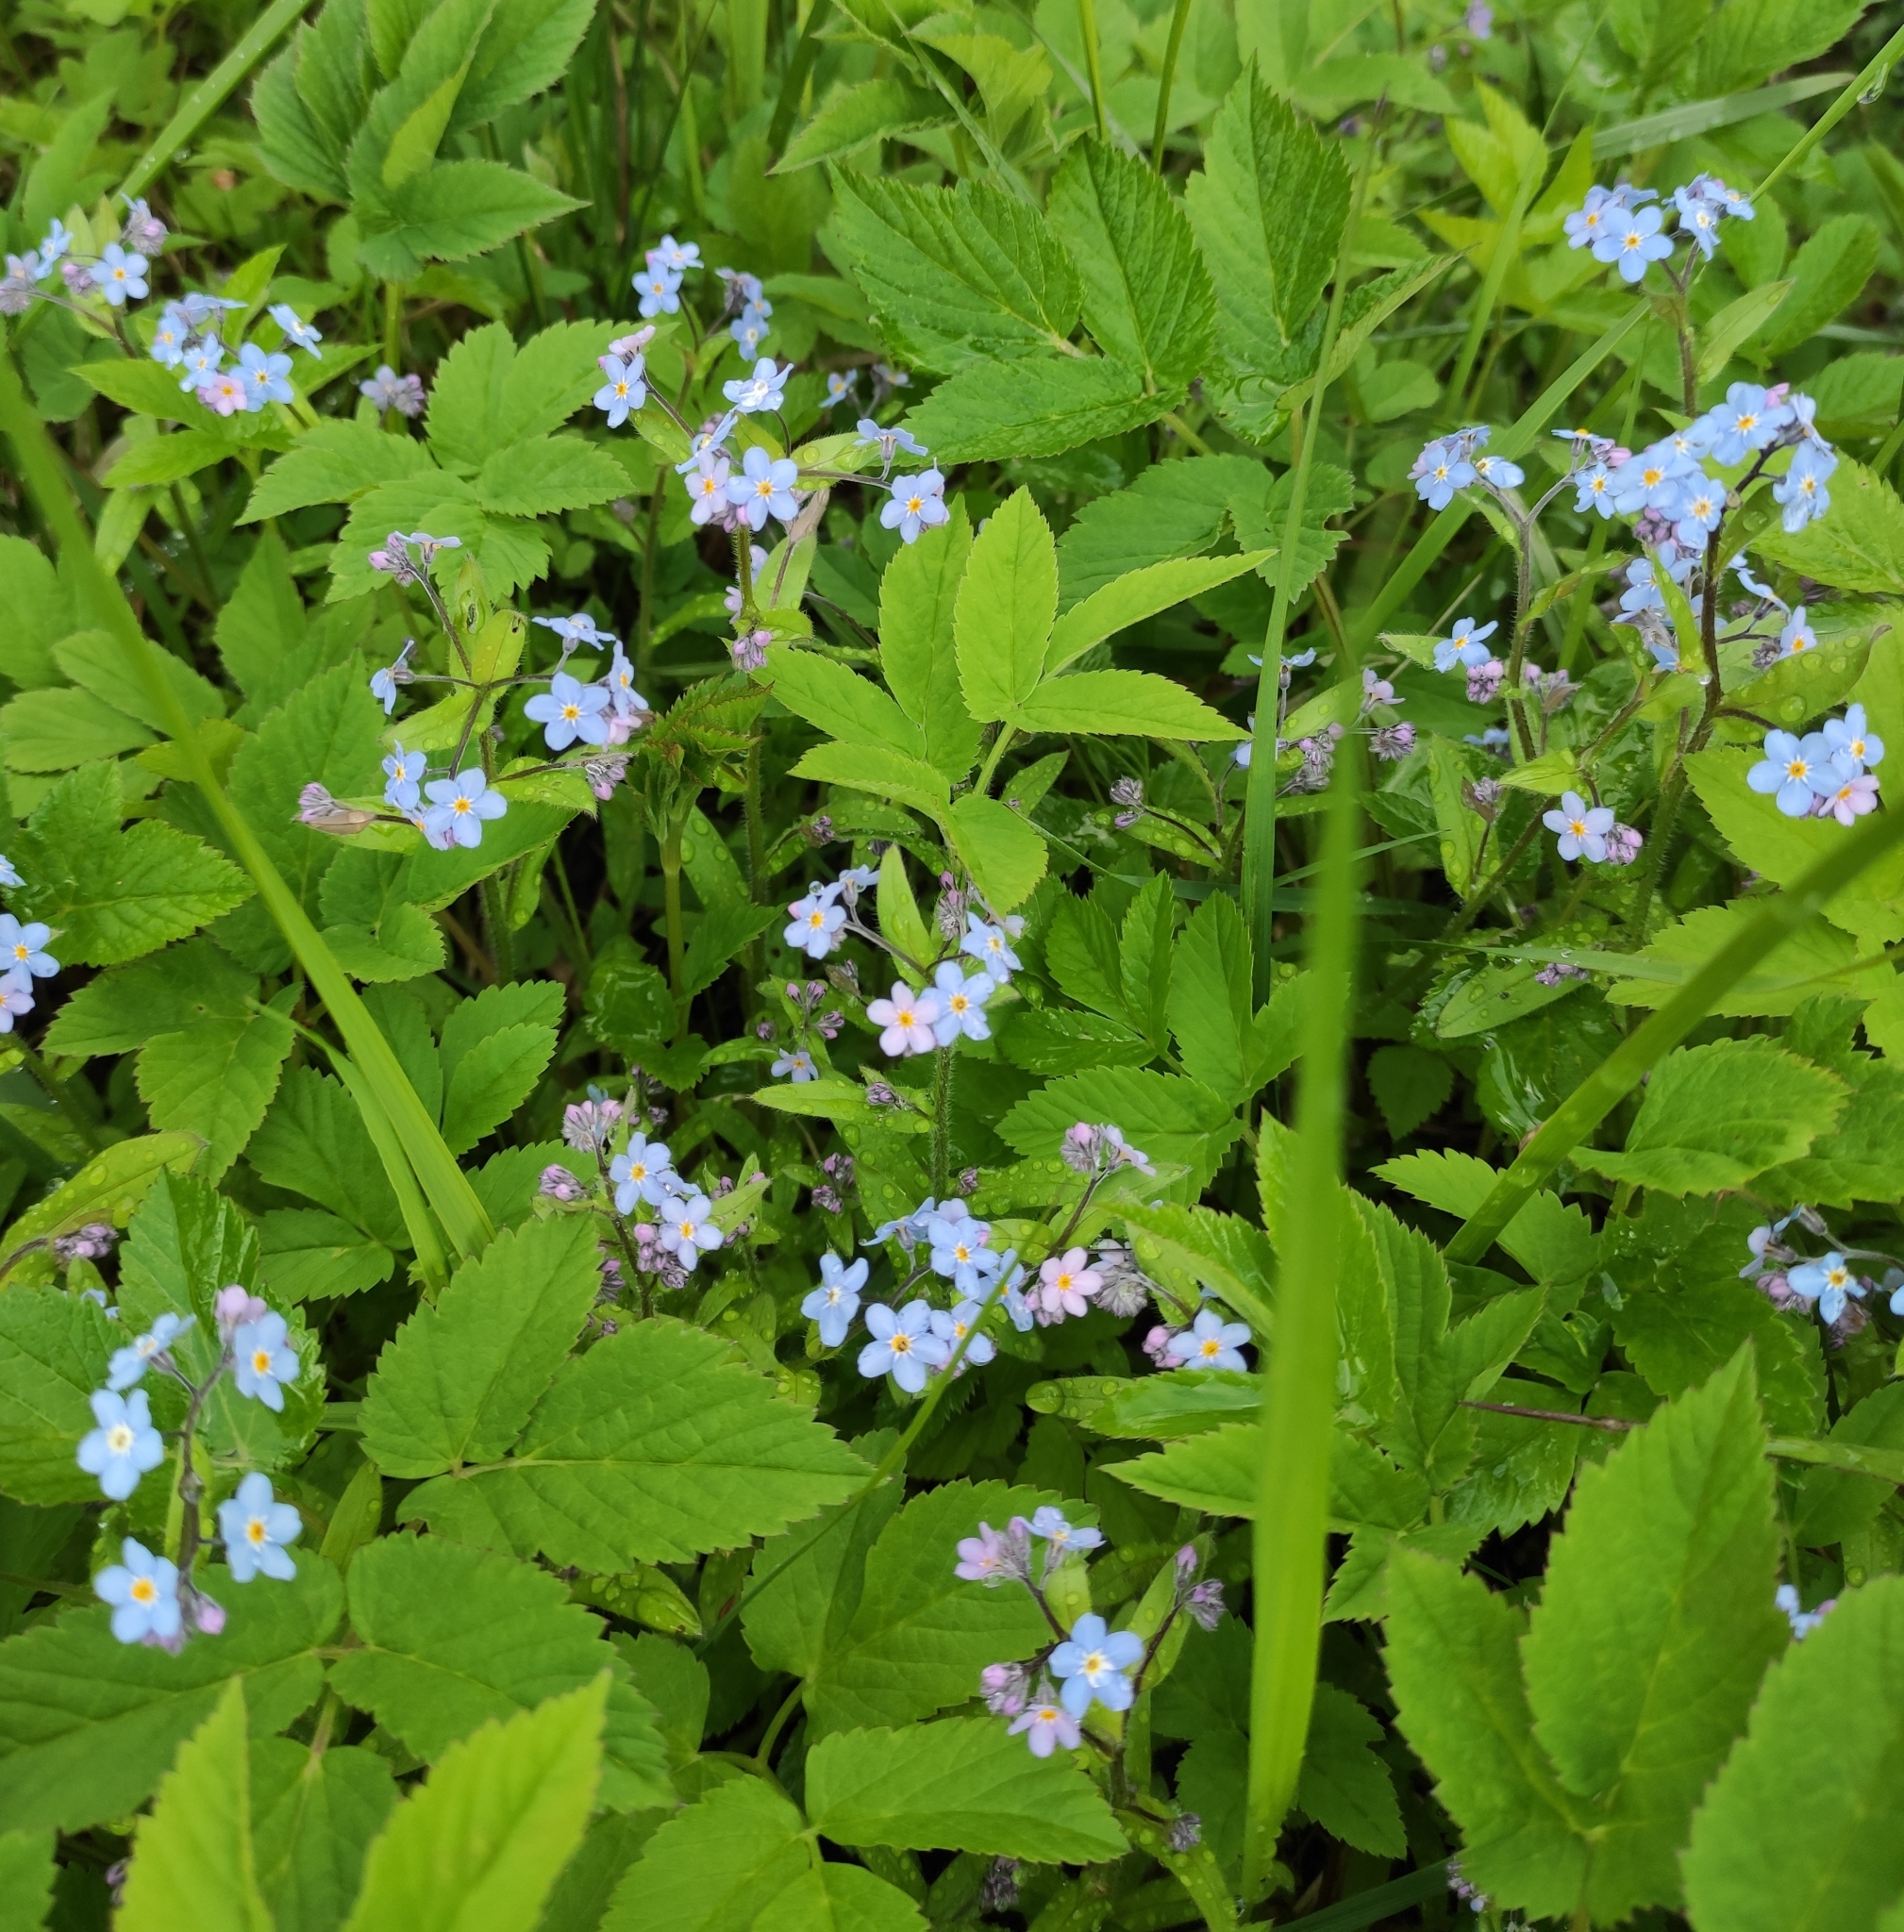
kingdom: Plantae
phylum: Tracheophyta
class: Magnoliopsida
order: Boraginales
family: Boraginaceae
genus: Myosotis
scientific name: Myosotis sylvatica
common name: Wood forget-me-not
